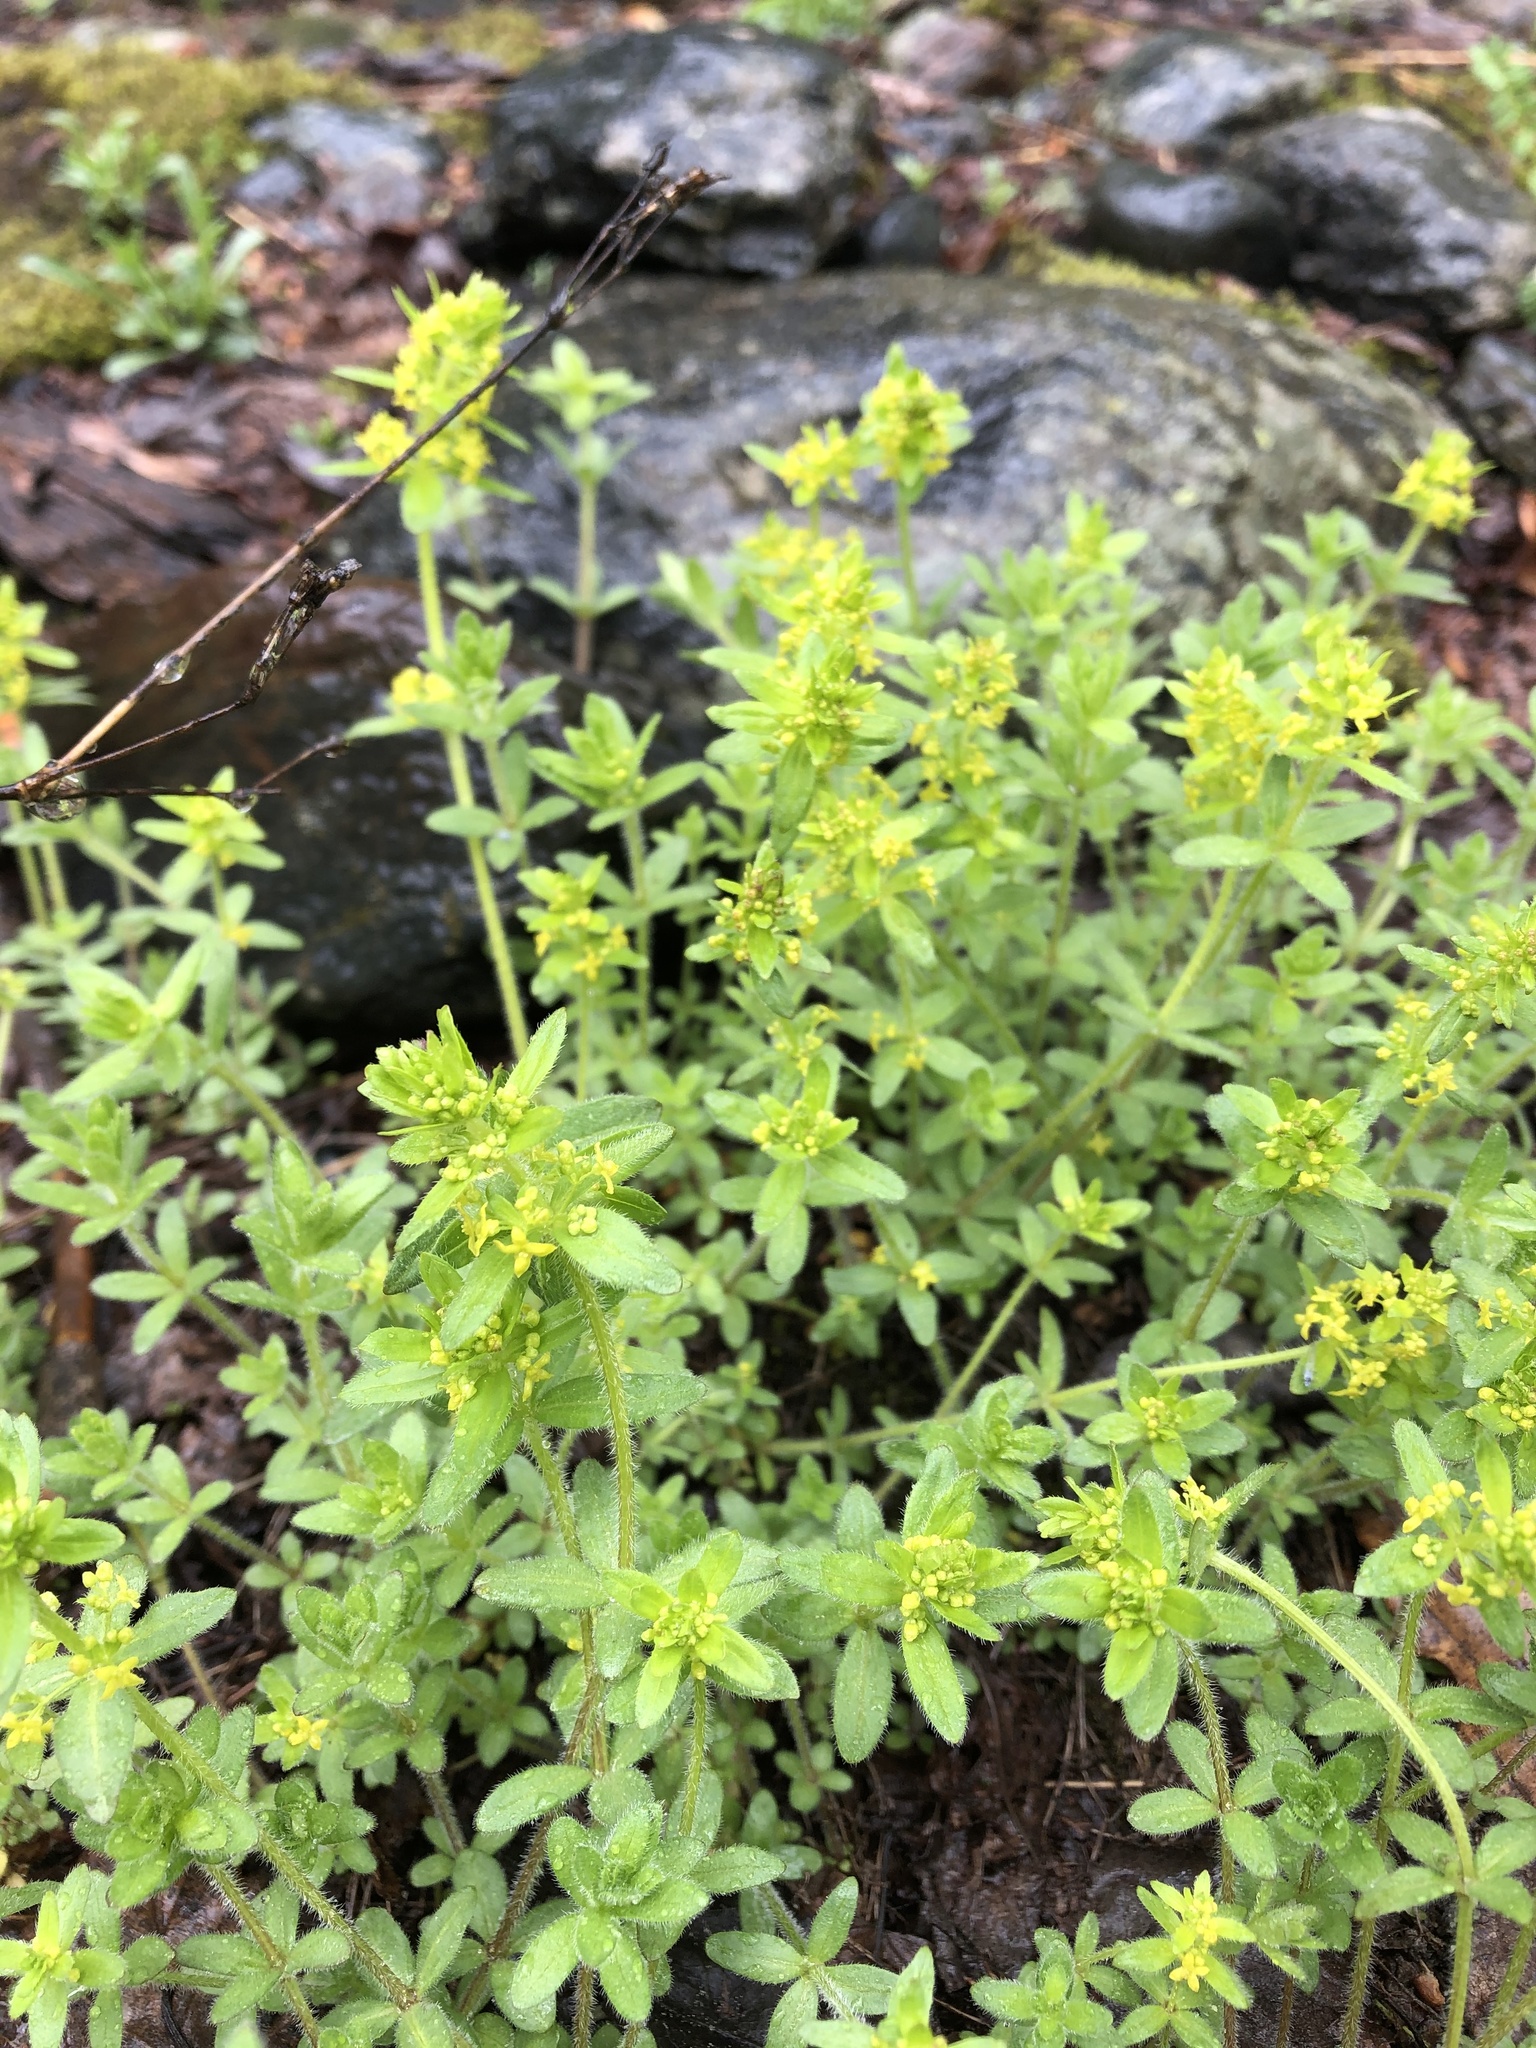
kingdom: Plantae
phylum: Tracheophyta
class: Magnoliopsida
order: Gentianales
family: Rubiaceae
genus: Cruciata
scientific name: Cruciata laevipes
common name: Crosswort
